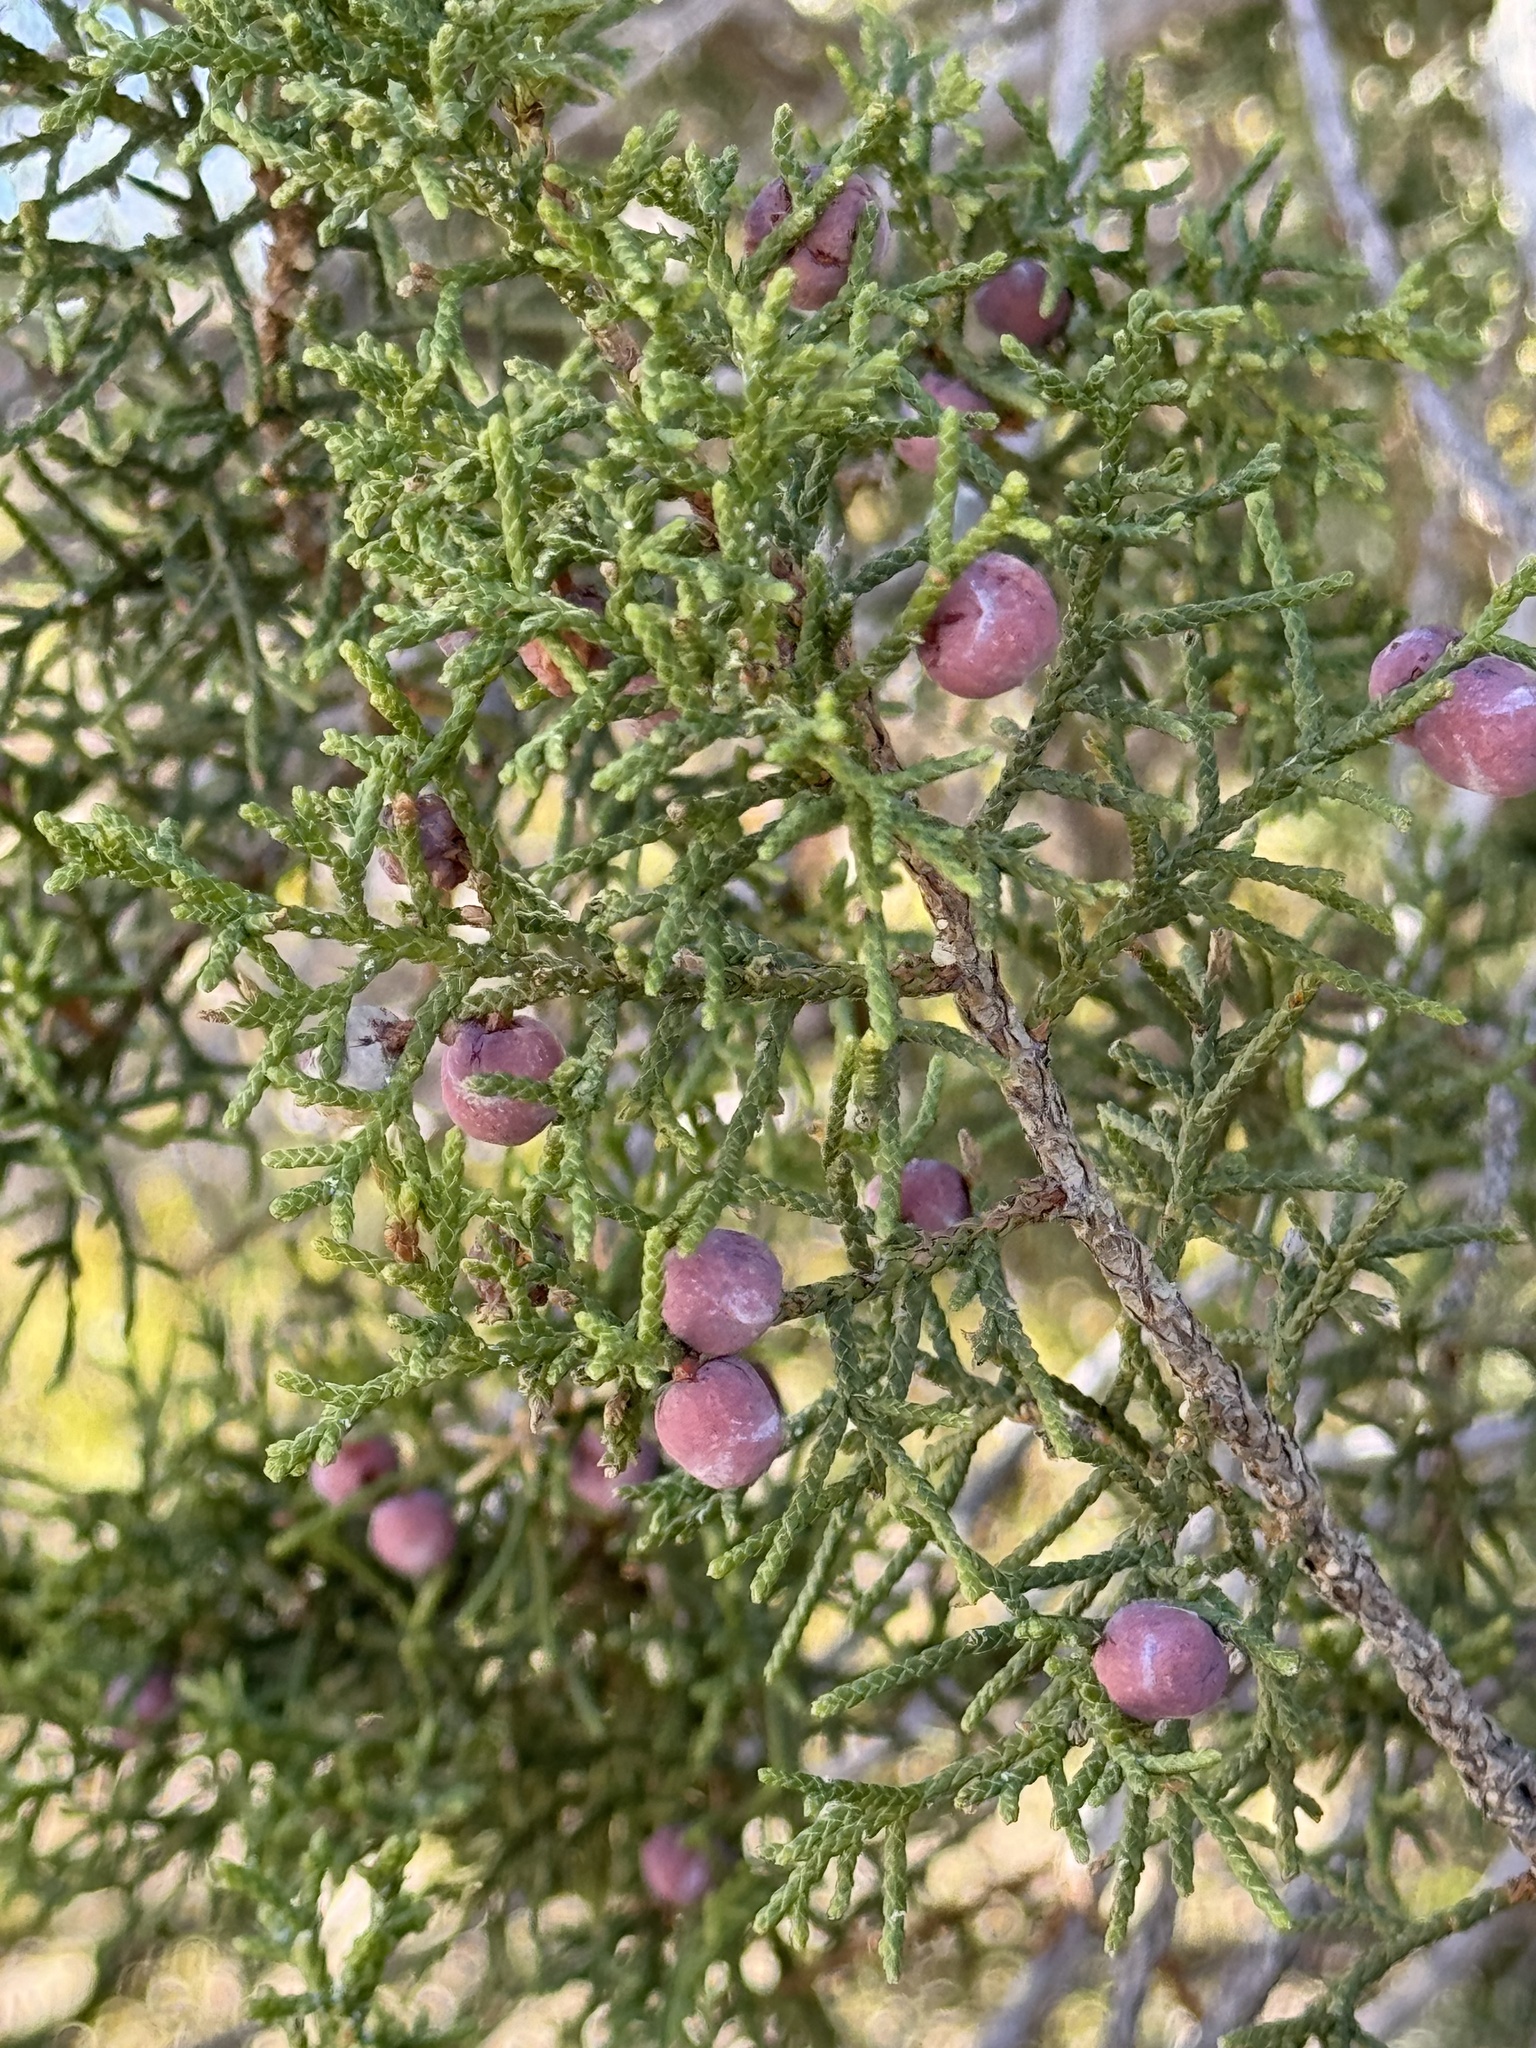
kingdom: Plantae
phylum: Tracheophyta
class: Pinopsida
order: Pinales
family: Cupressaceae
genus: Juniperus
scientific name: Juniperus arizonica
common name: Arizona juniper
